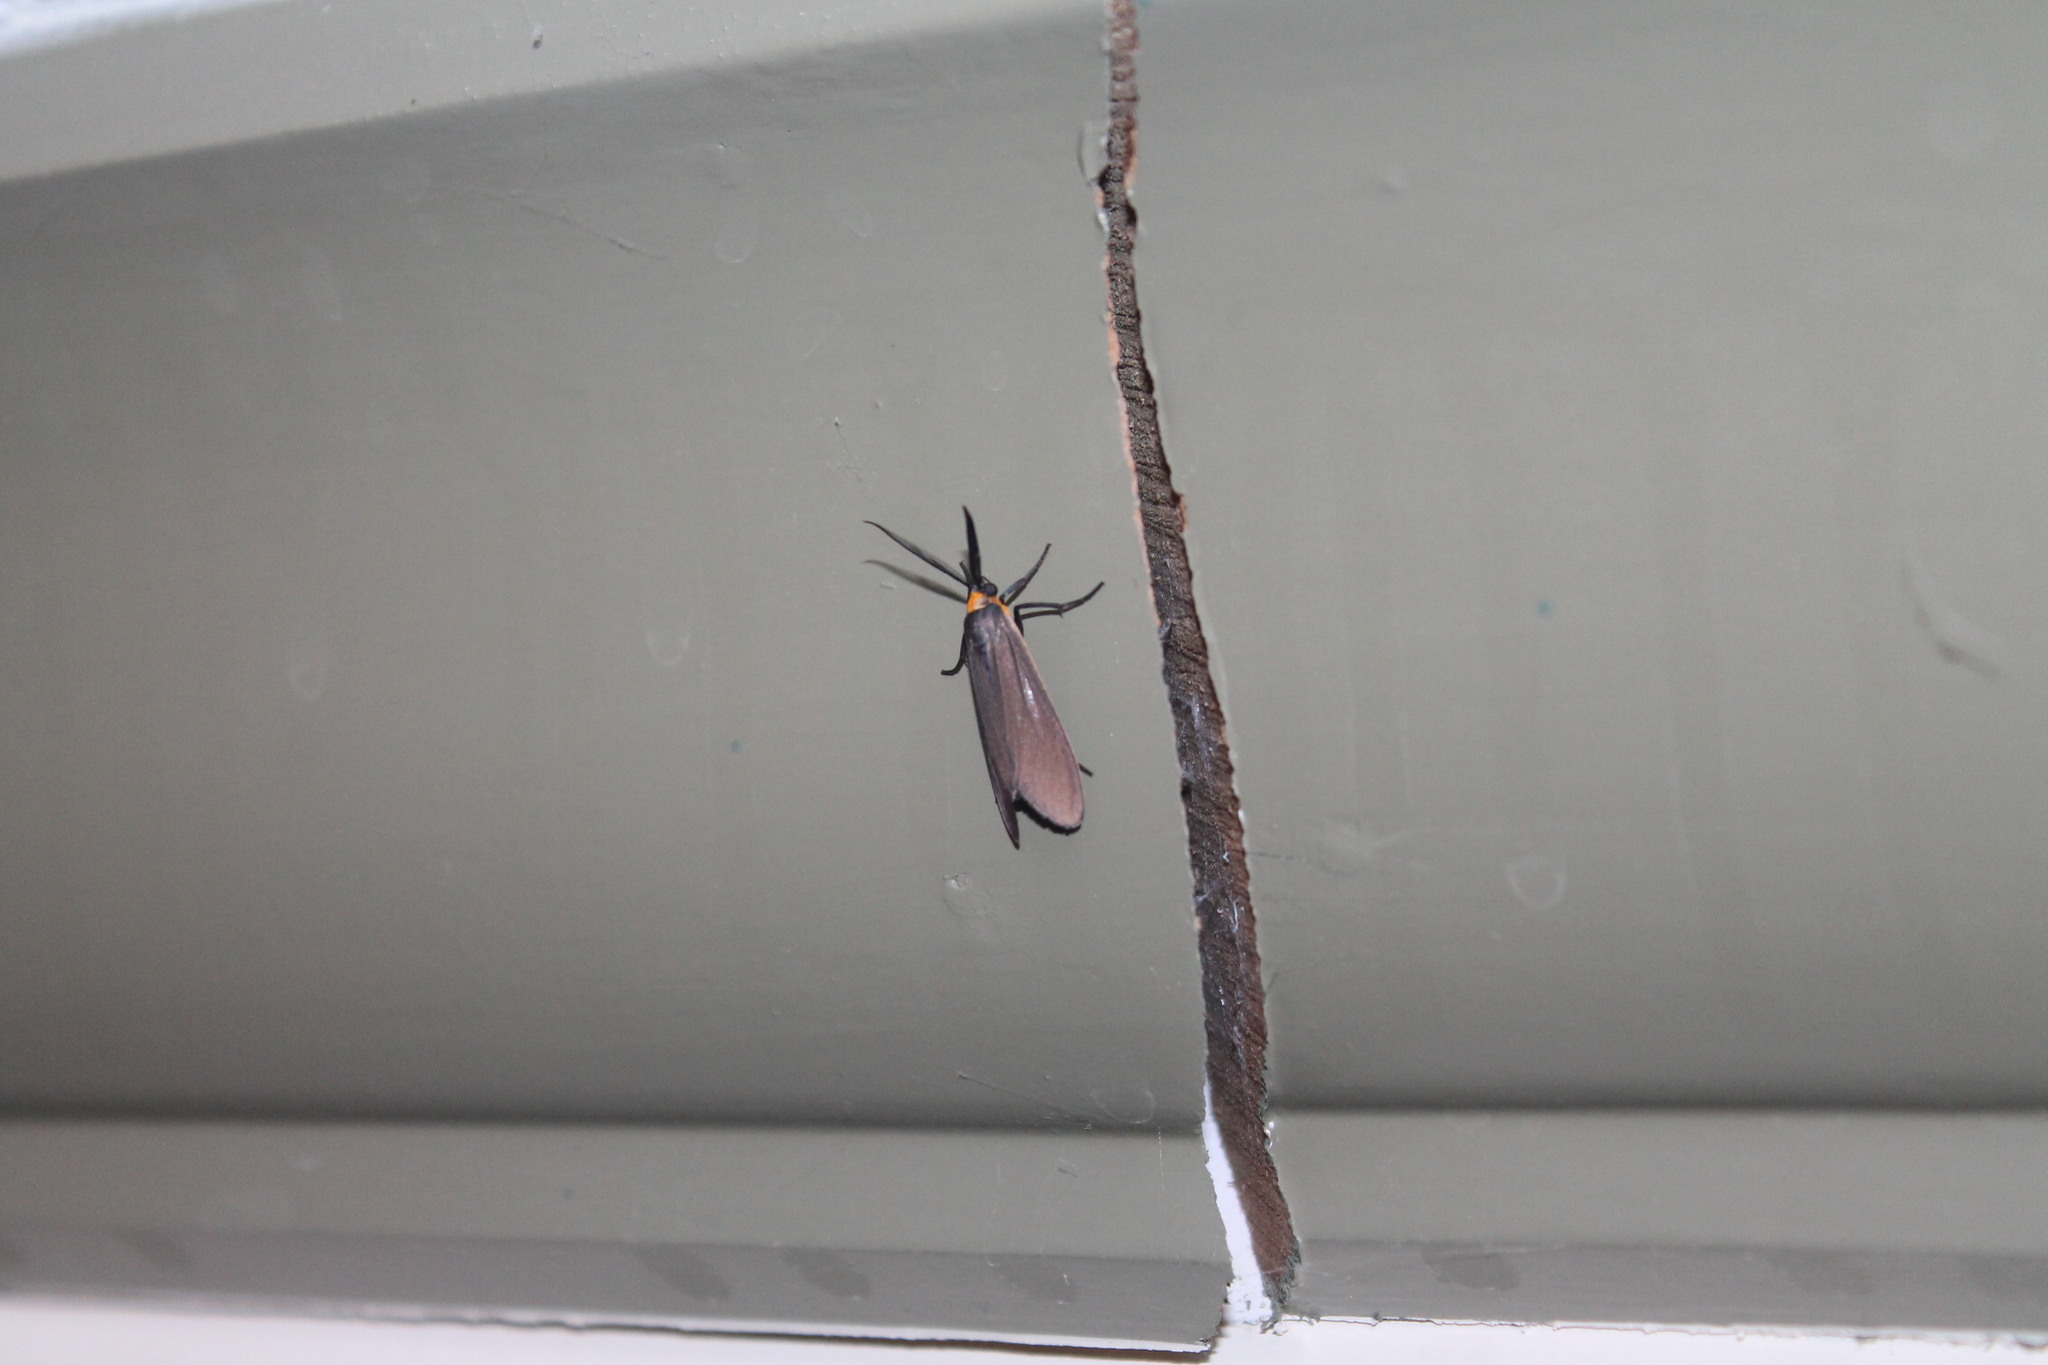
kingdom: Animalia
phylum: Arthropoda
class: Insecta
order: Lepidoptera
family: Erebidae
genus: Cisseps
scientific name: Cisseps fulvicollis
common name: Yellow-collared scape moth
